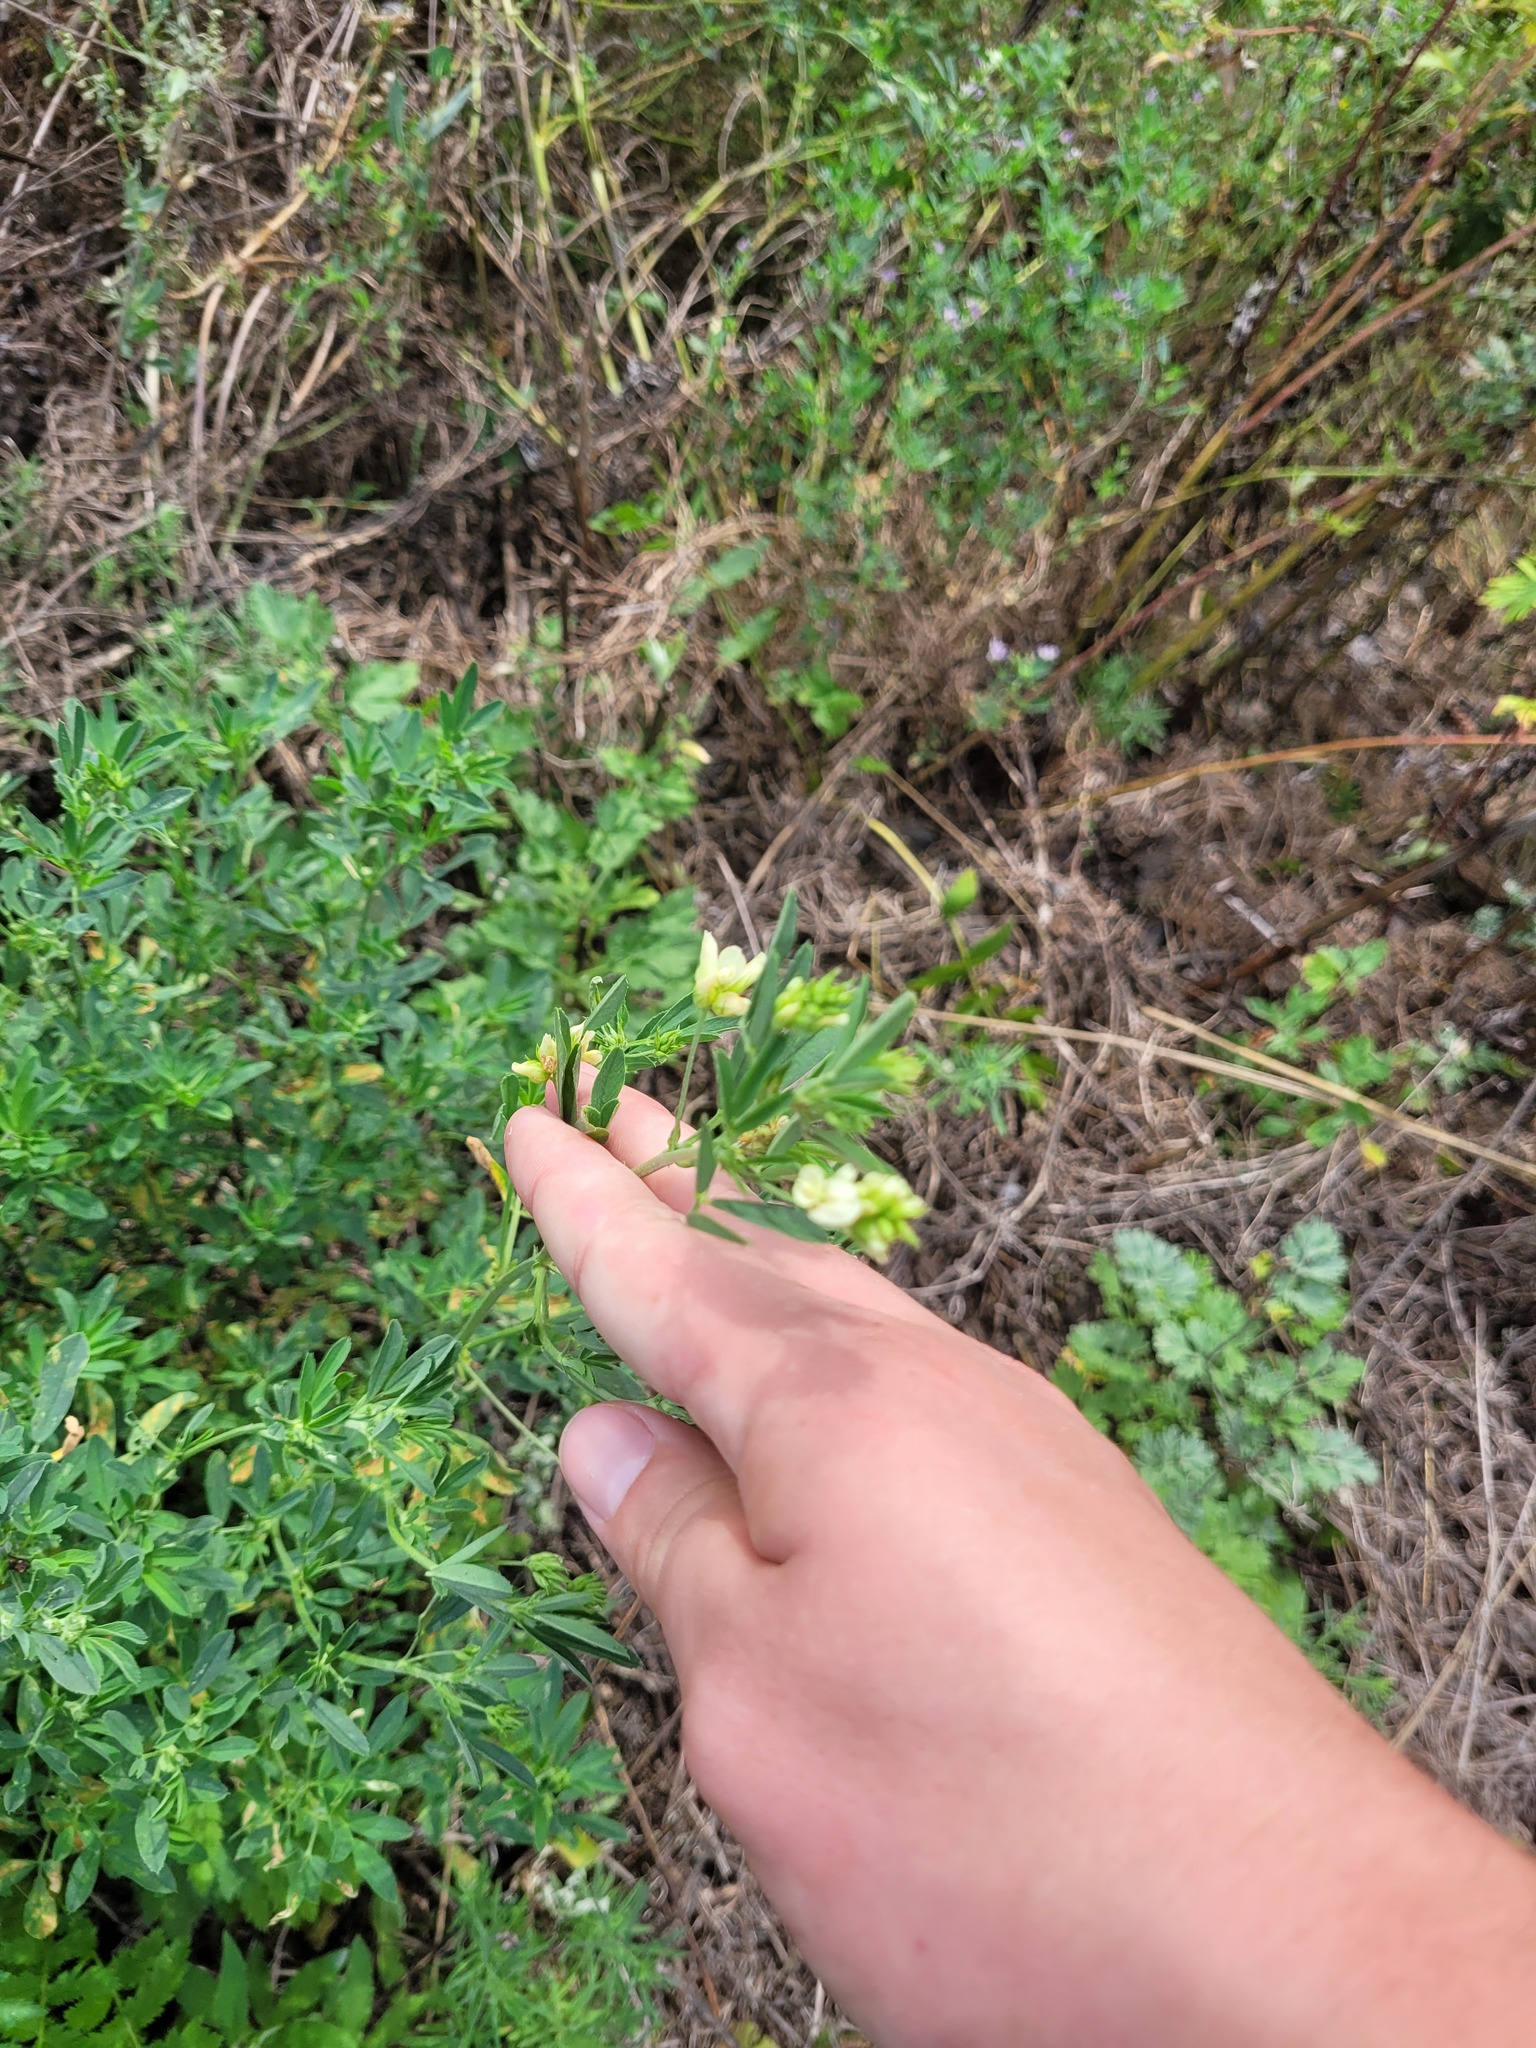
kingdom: Plantae
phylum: Tracheophyta
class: Magnoliopsida
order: Fabales
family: Fabaceae
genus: Medicago
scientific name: Medicago varia
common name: Sand lucerne
